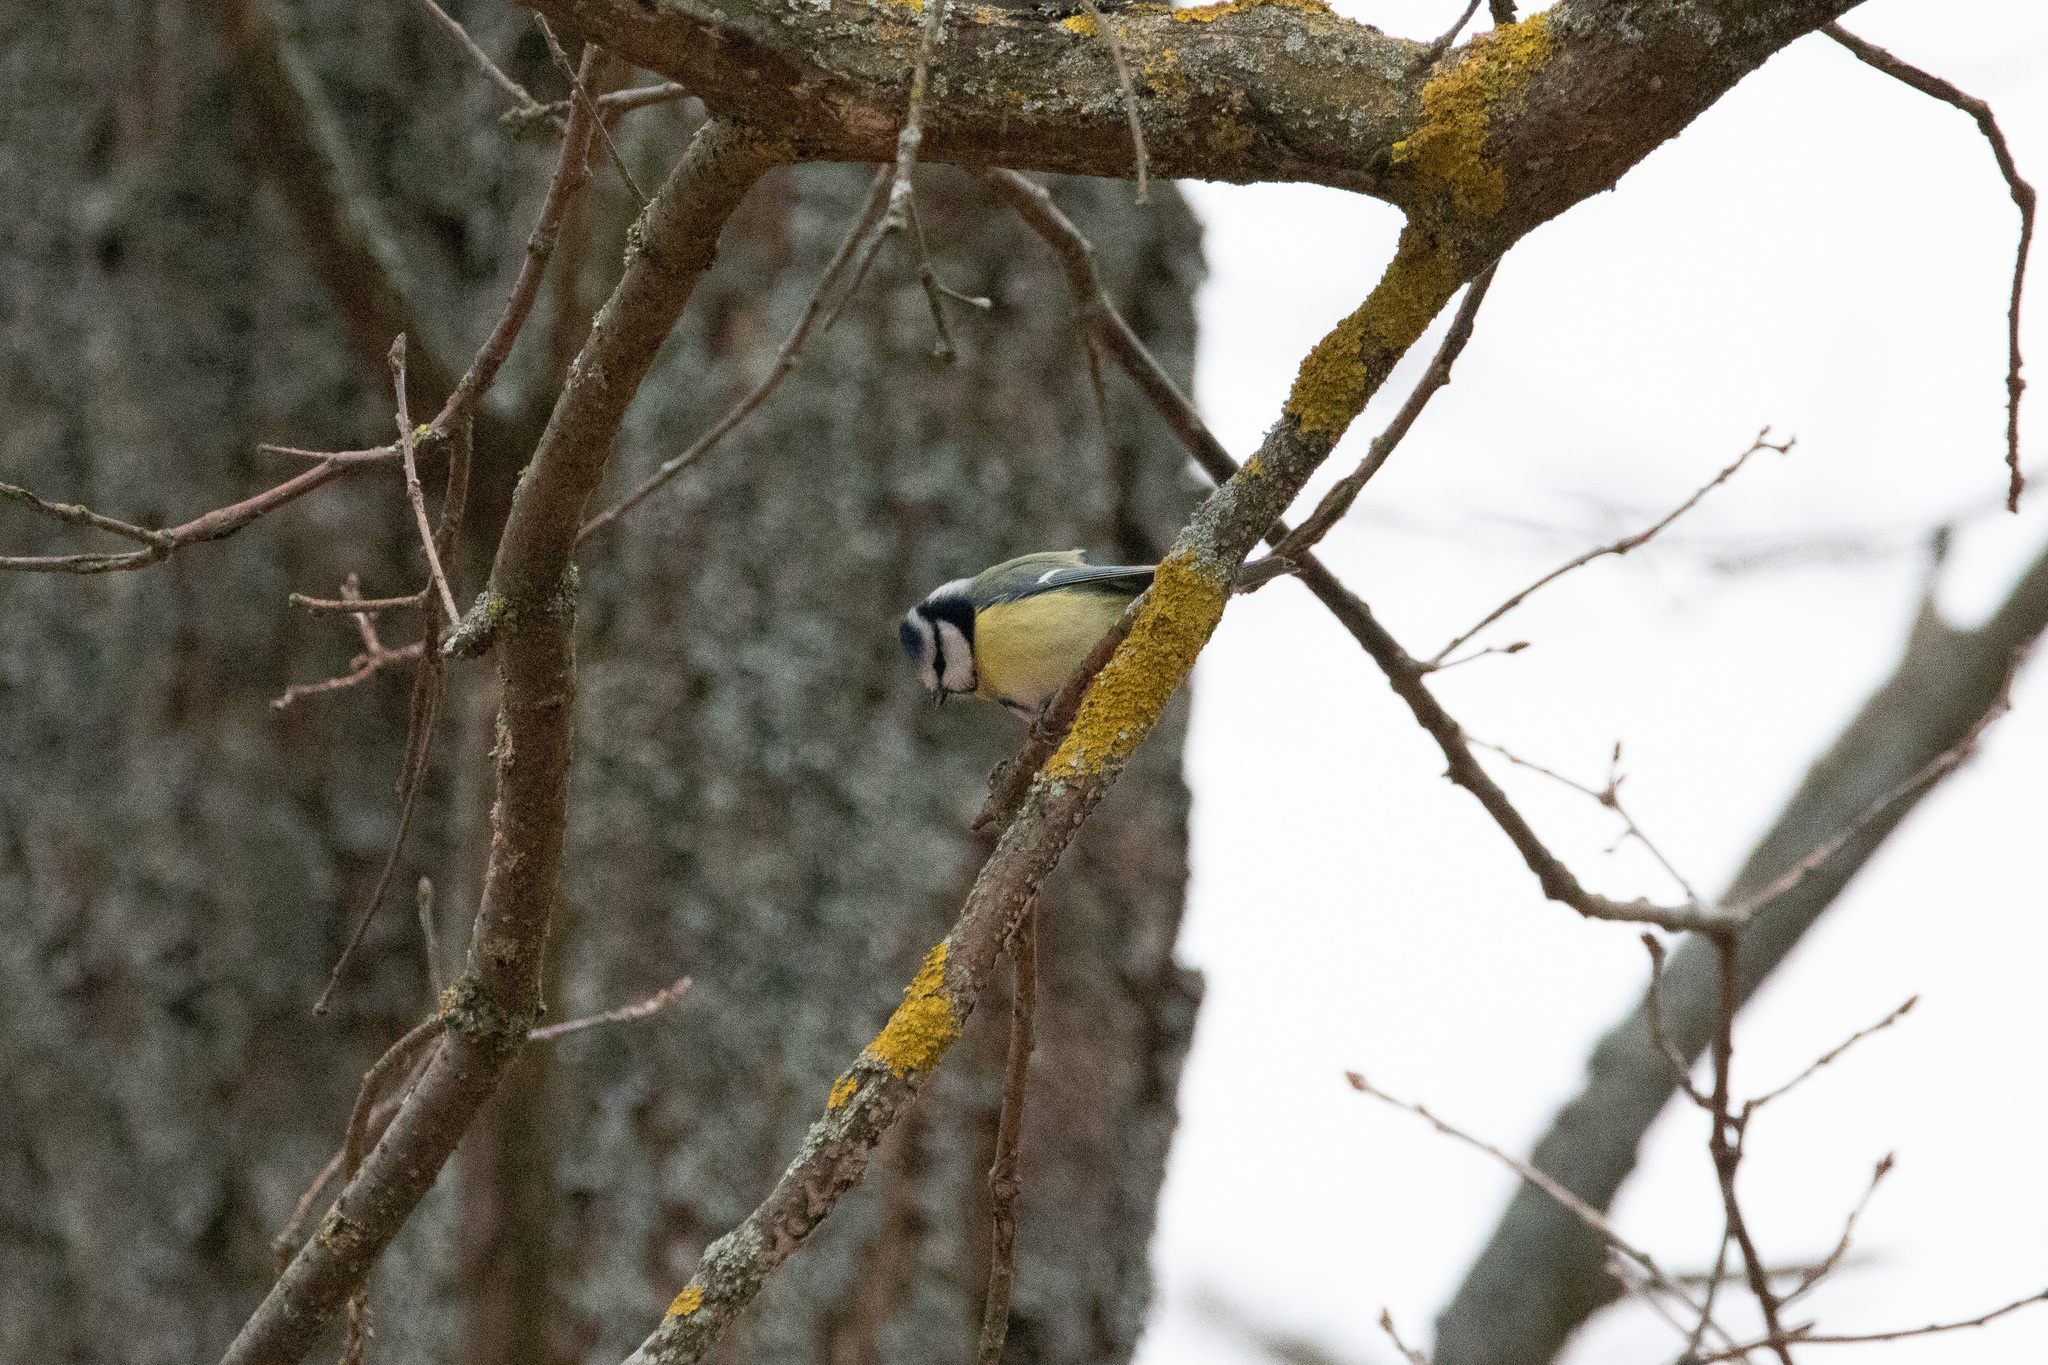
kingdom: Animalia
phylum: Chordata
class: Aves
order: Passeriformes
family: Paridae
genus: Cyanistes
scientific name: Cyanistes caeruleus
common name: Eurasian blue tit
